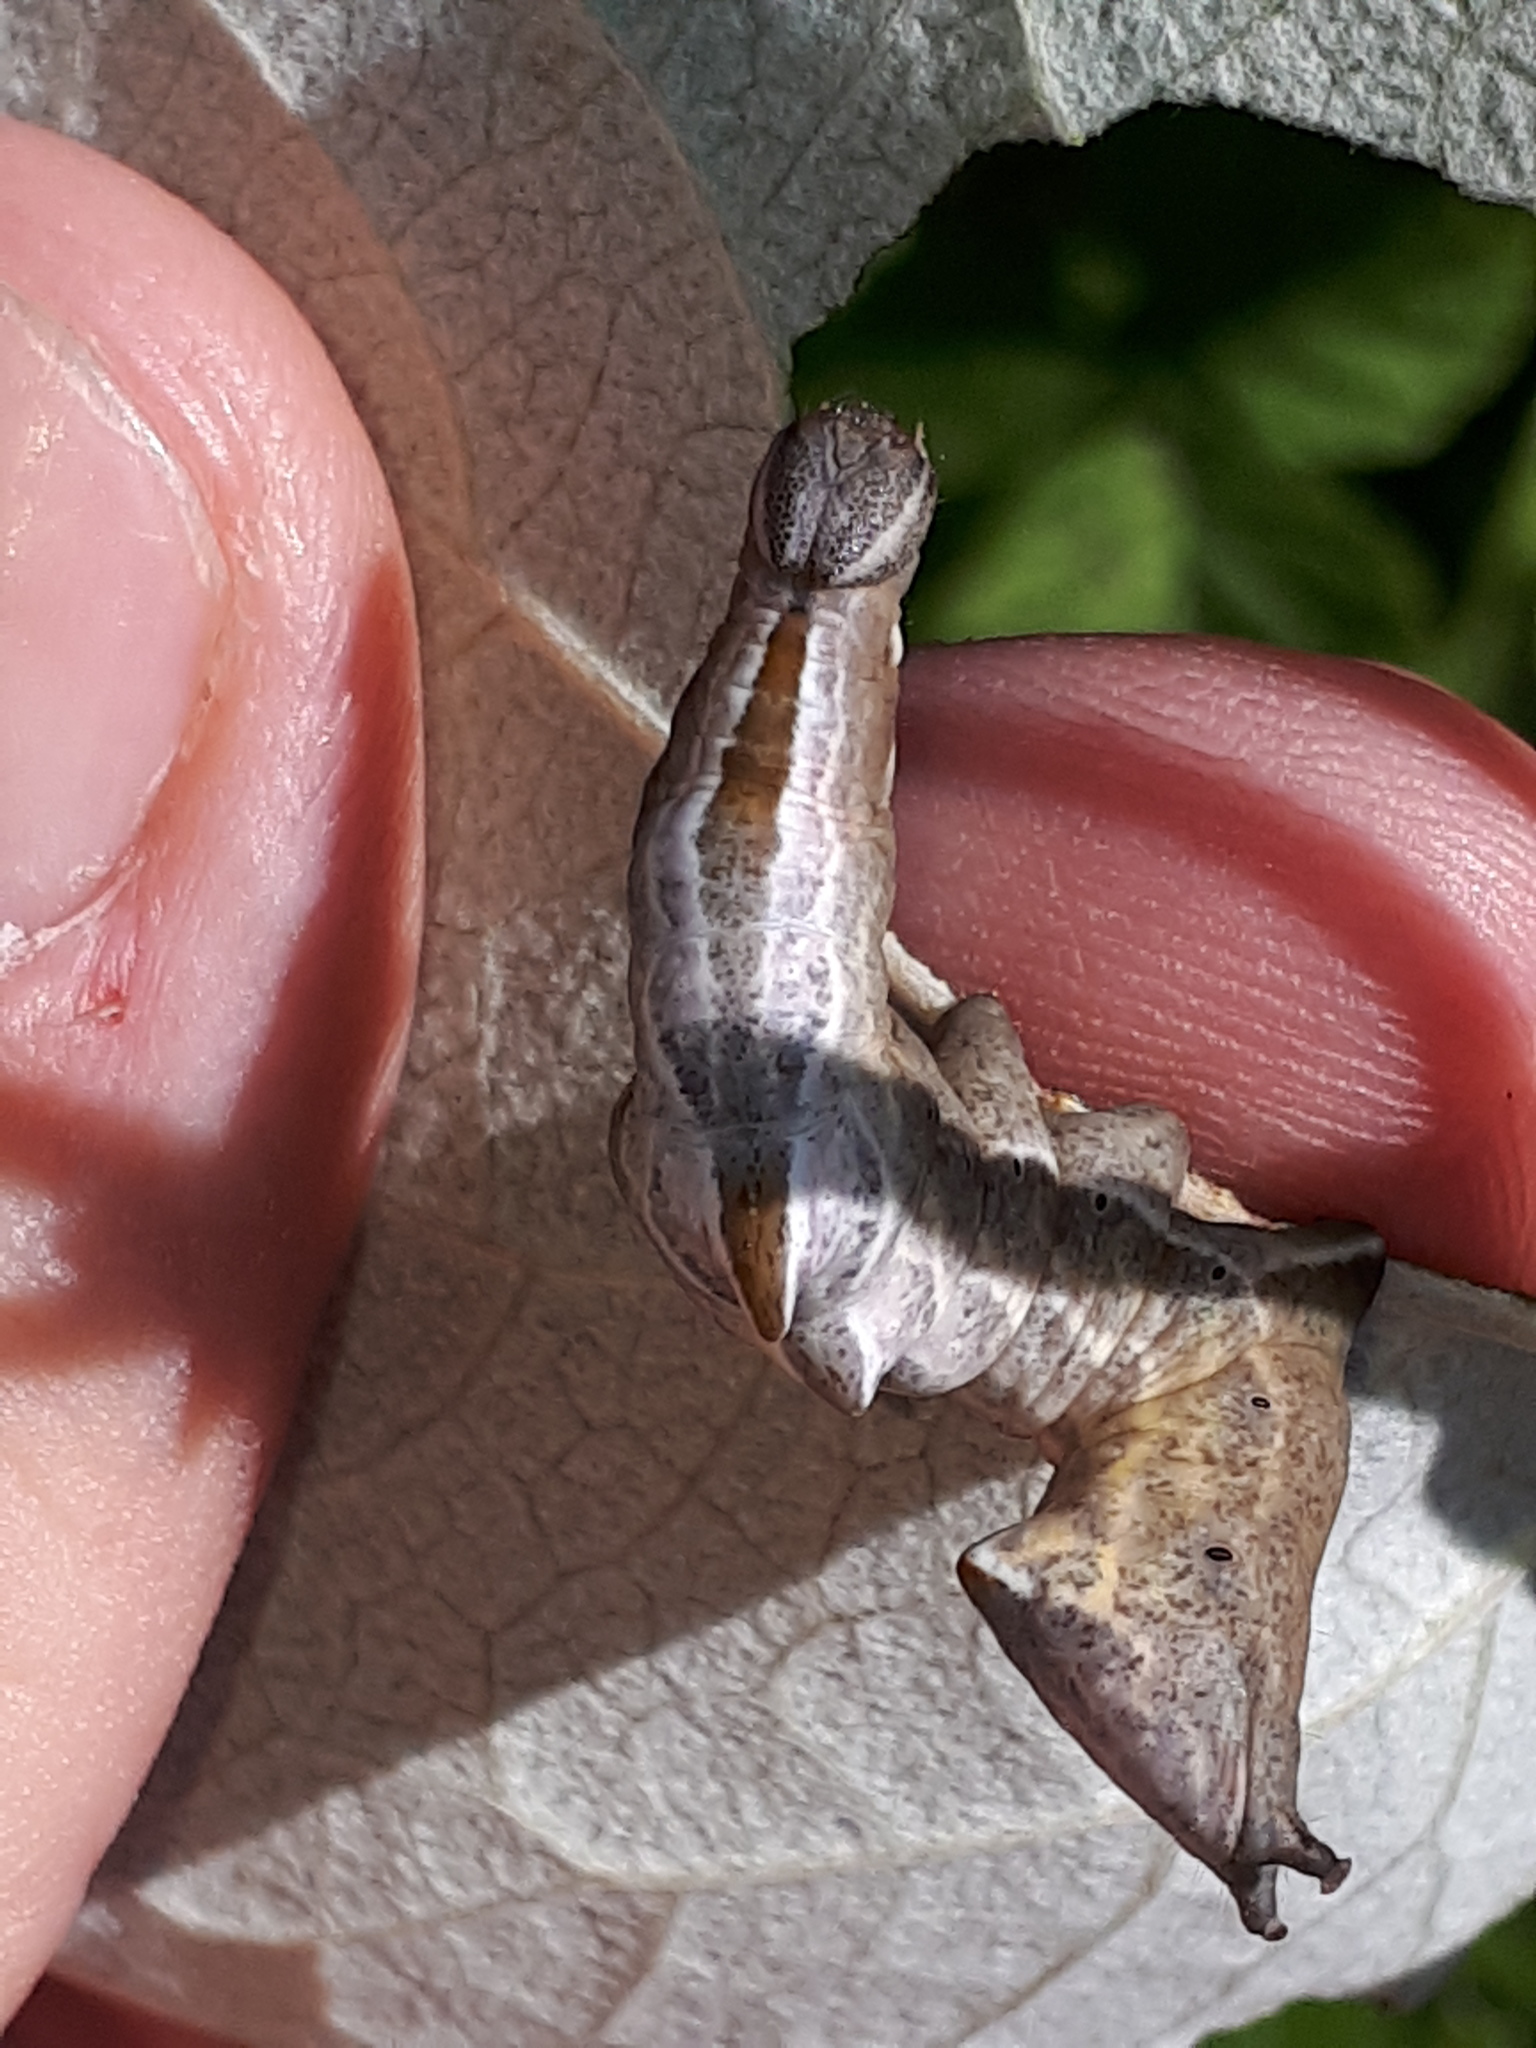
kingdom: Animalia
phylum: Arthropoda
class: Insecta
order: Lepidoptera
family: Notodontidae
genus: Notodonta
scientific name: Notodonta ziczac
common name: Pebble prominent
